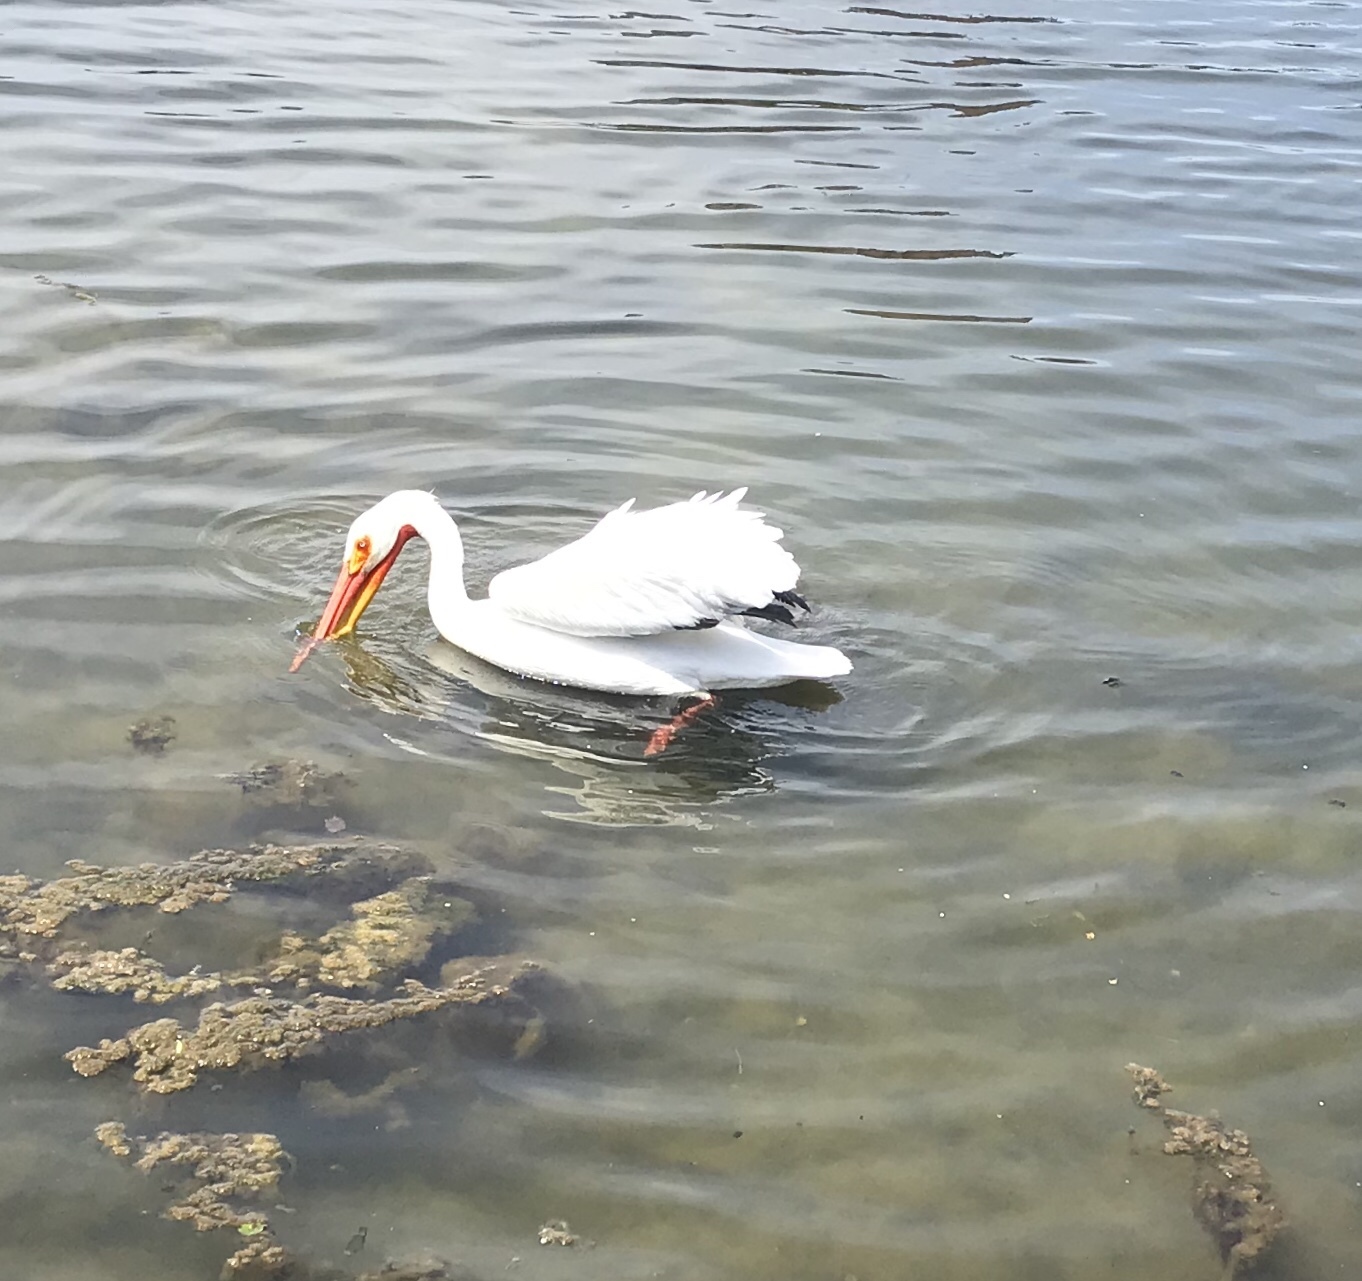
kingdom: Animalia
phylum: Chordata
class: Aves
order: Pelecaniformes
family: Pelecanidae
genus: Pelecanus
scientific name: Pelecanus erythrorhynchos
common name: American white pelican
